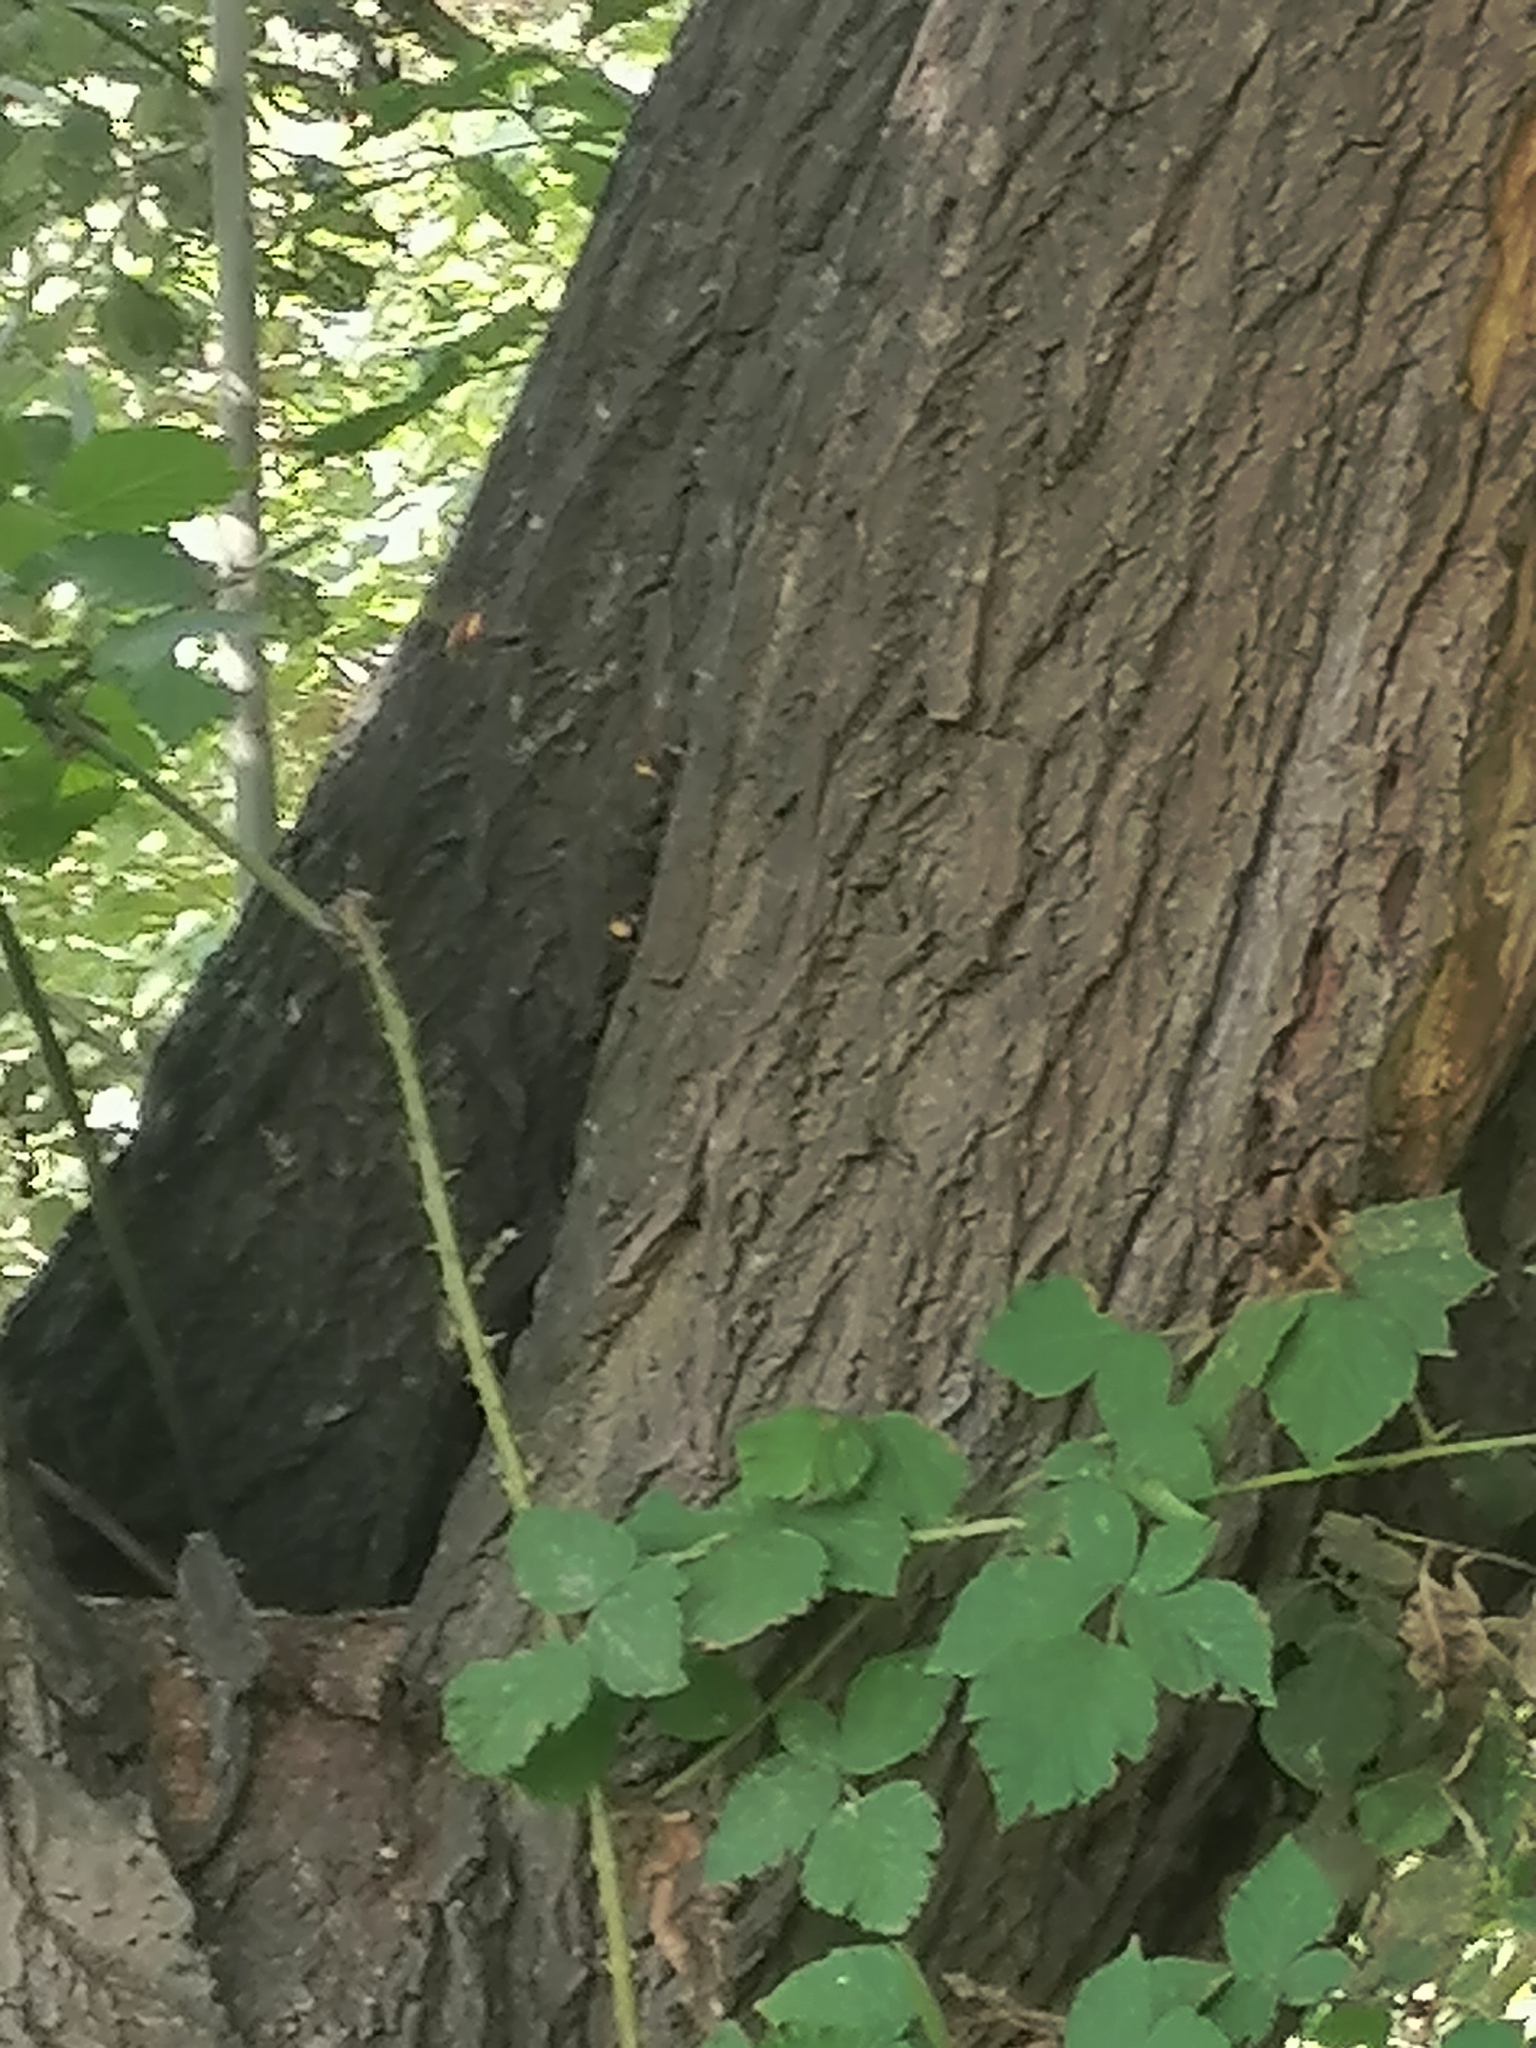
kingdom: Animalia
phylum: Arthropoda
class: Insecta
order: Hymenoptera
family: Vespidae
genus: Vespa
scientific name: Vespa crabro
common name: Hornet
